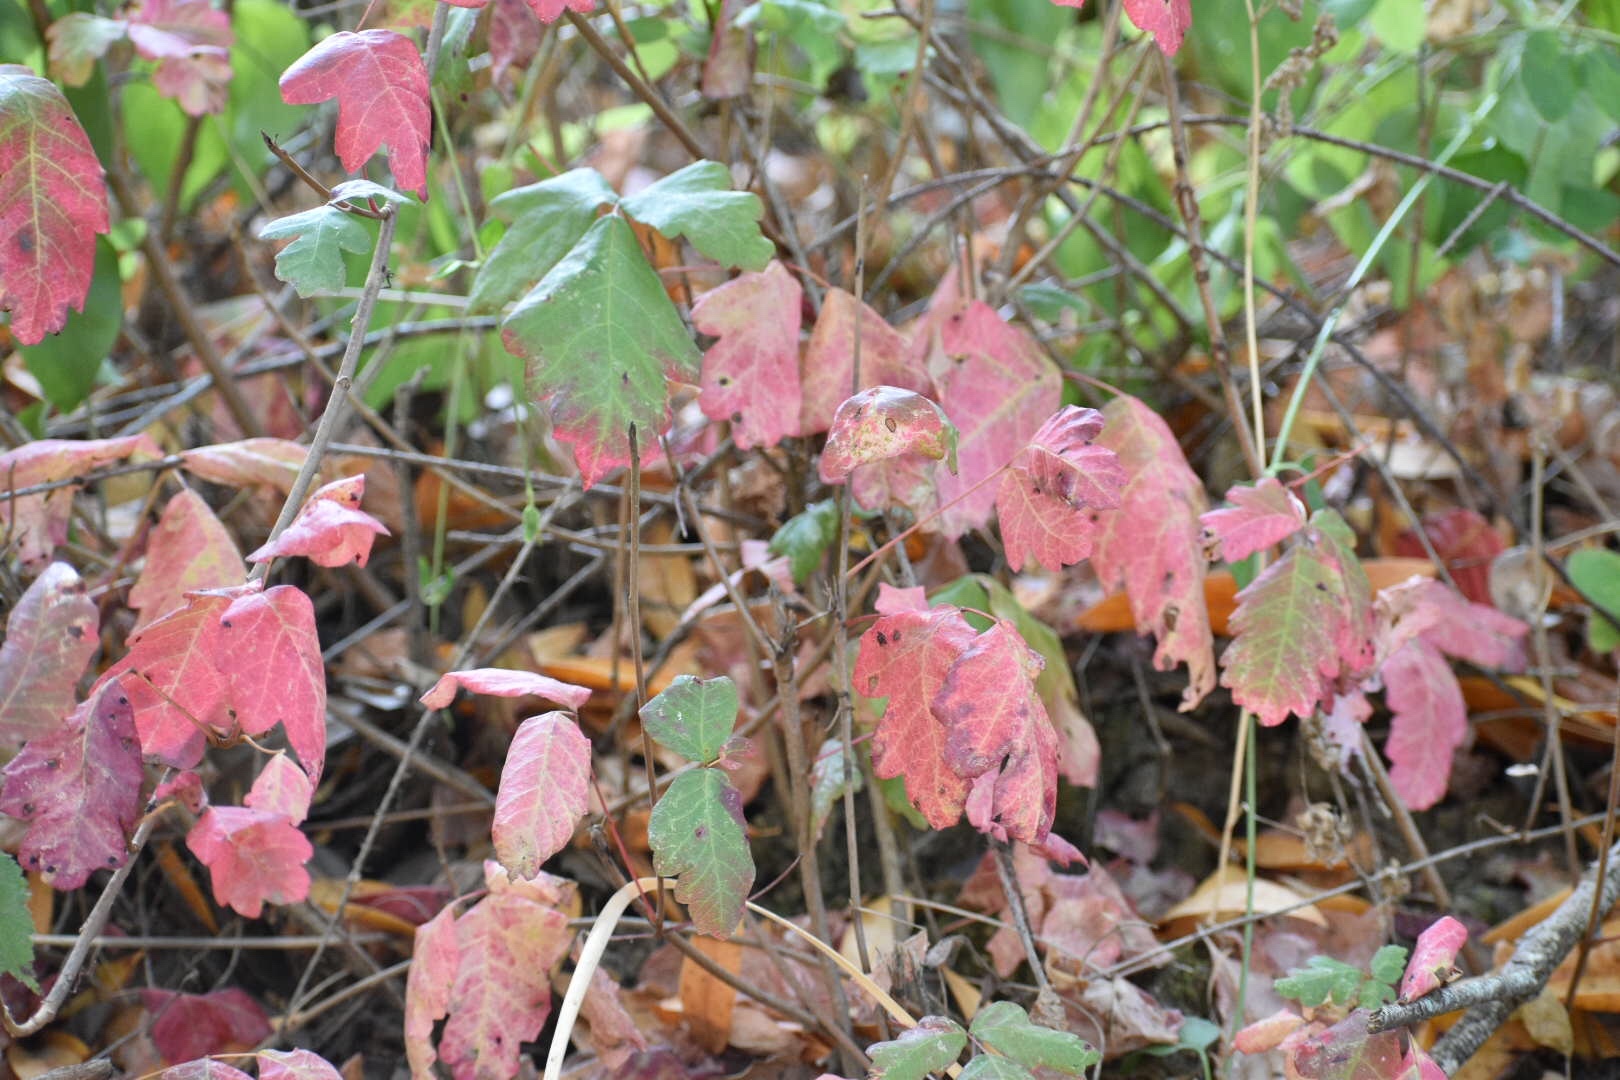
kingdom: Plantae
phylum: Tracheophyta
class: Magnoliopsida
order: Sapindales
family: Anacardiaceae
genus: Toxicodendron
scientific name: Toxicodendron diversilobum
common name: Pacific poison-oak
